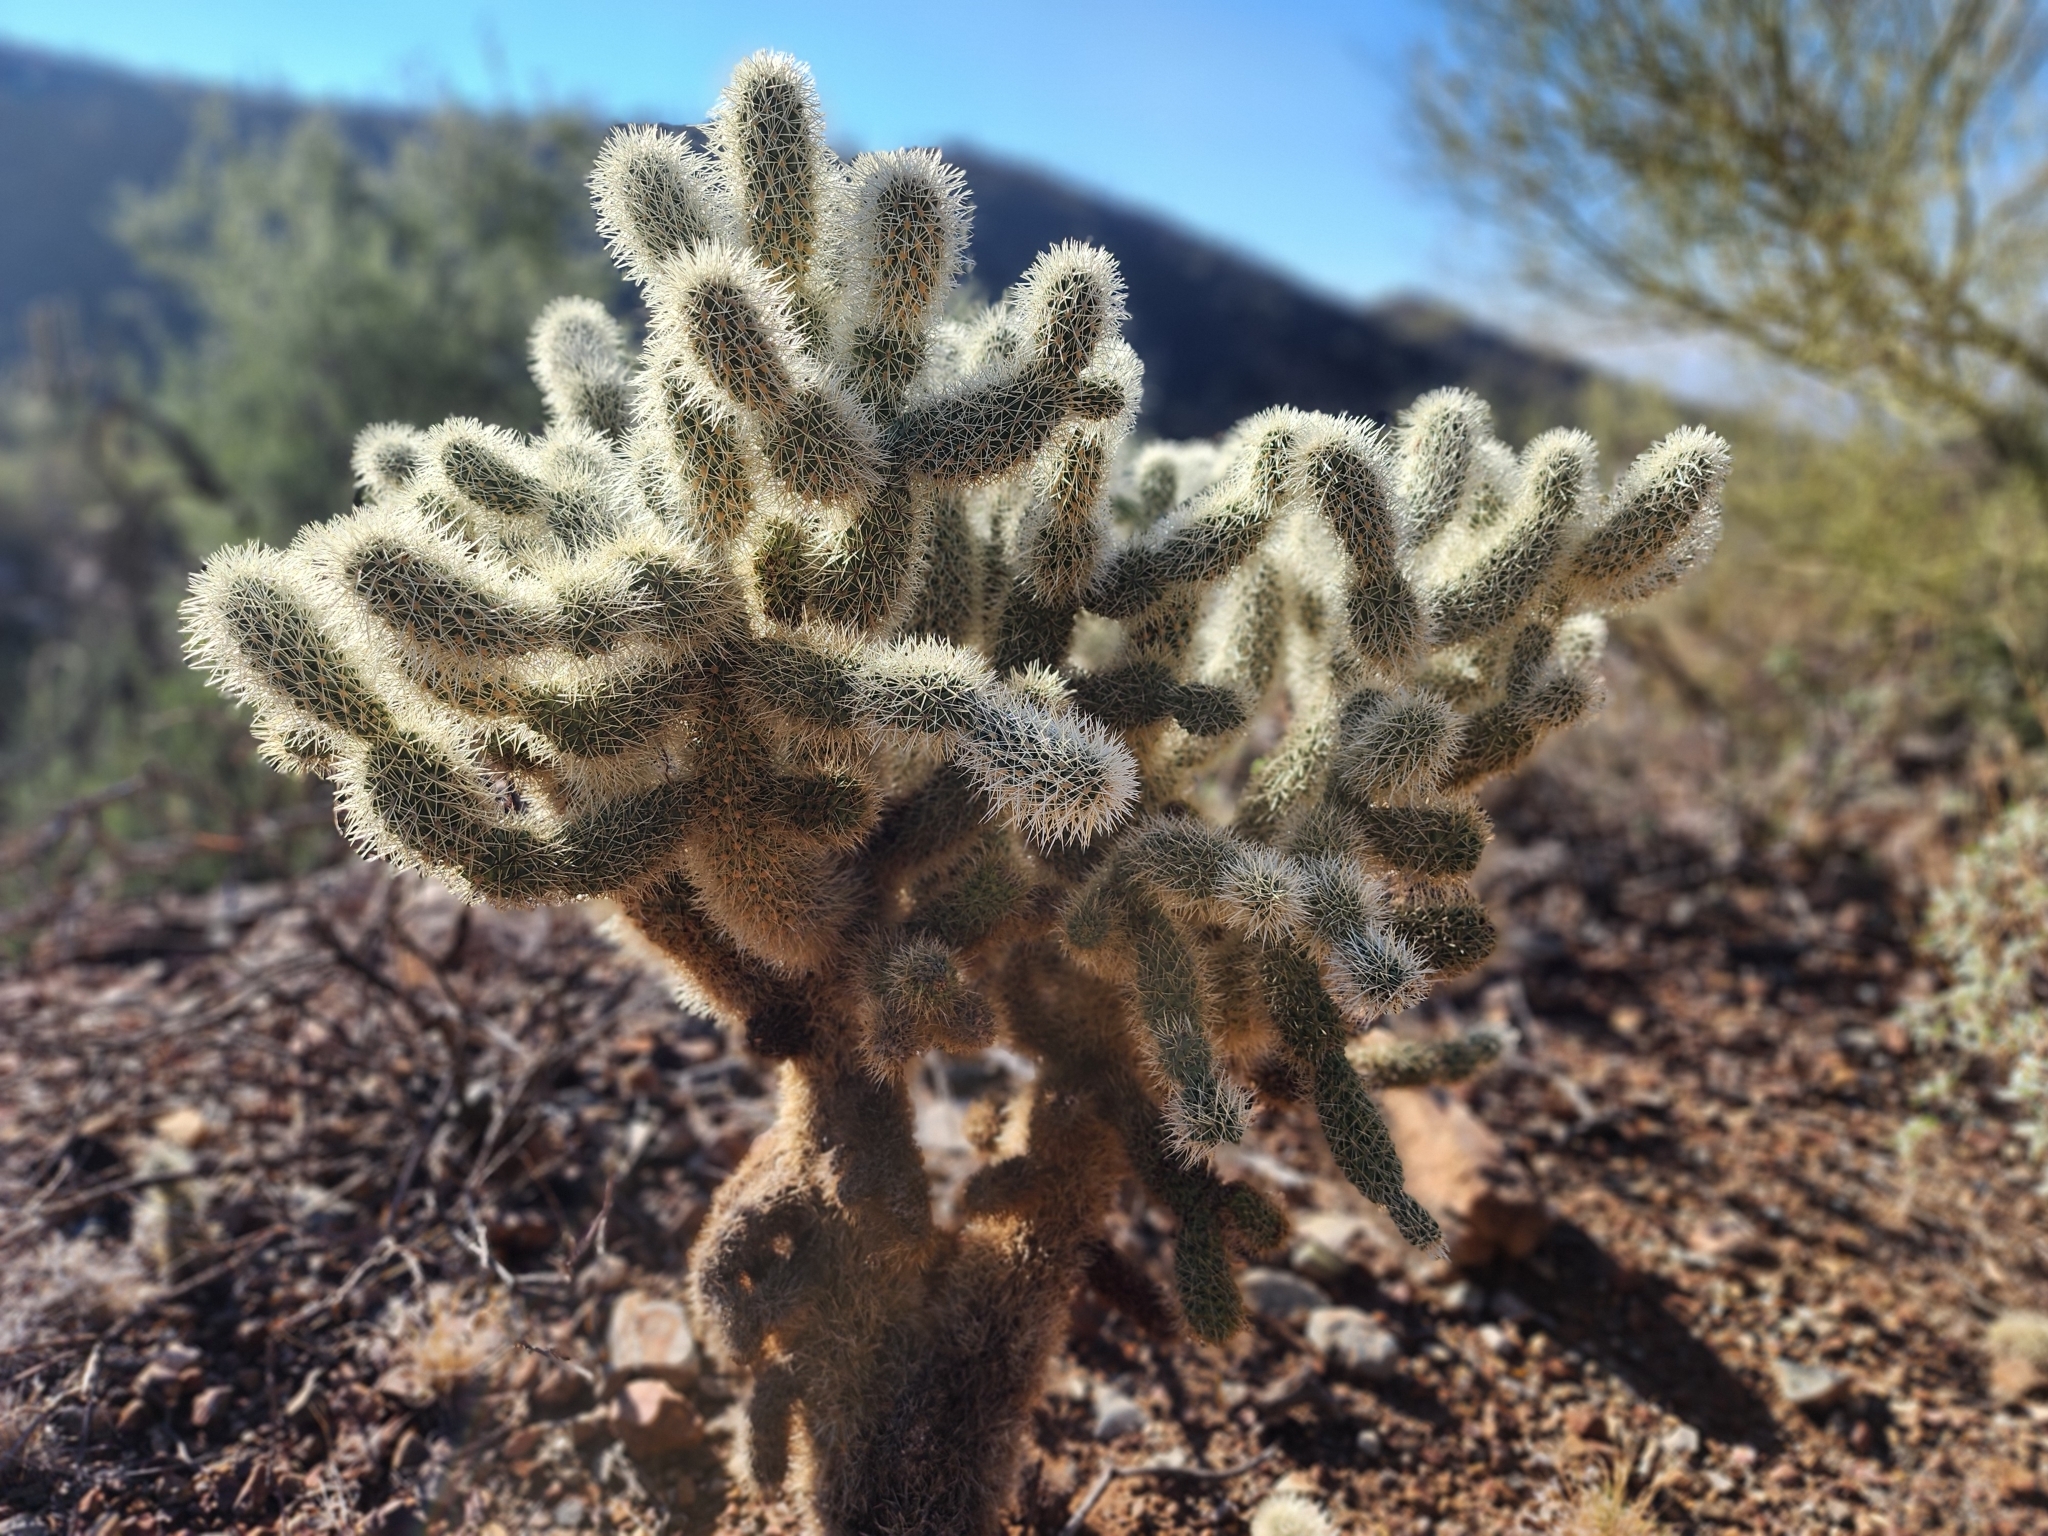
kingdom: Plantae
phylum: Tracheophyta
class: Magnoliopsida
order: Caryophyllales
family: Cactaceae
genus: Cylindropuntia
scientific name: Cylindropuntia fosbergii
